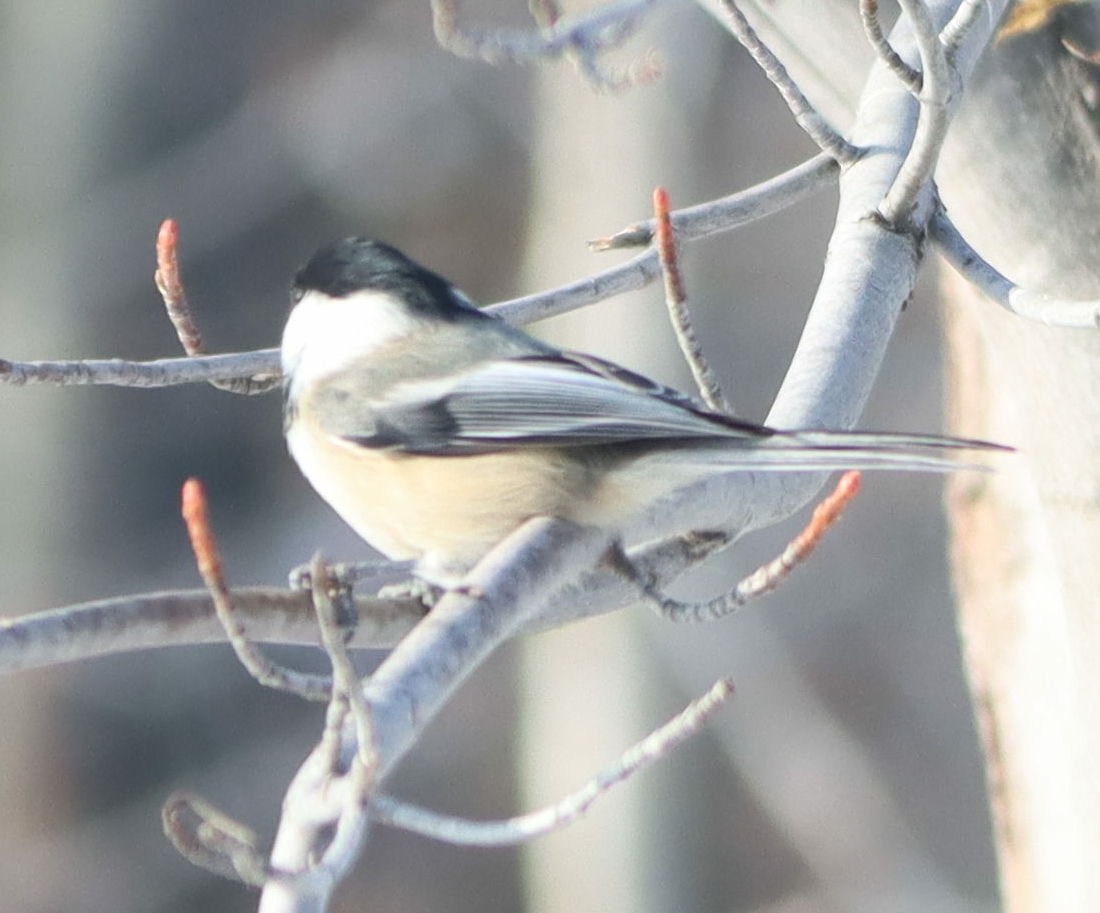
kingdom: Animalia
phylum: Chordata
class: Aves
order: Passeriformes
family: Paridae
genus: Poecile
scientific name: Poecile atricapillus
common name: Black-capped chickadee
